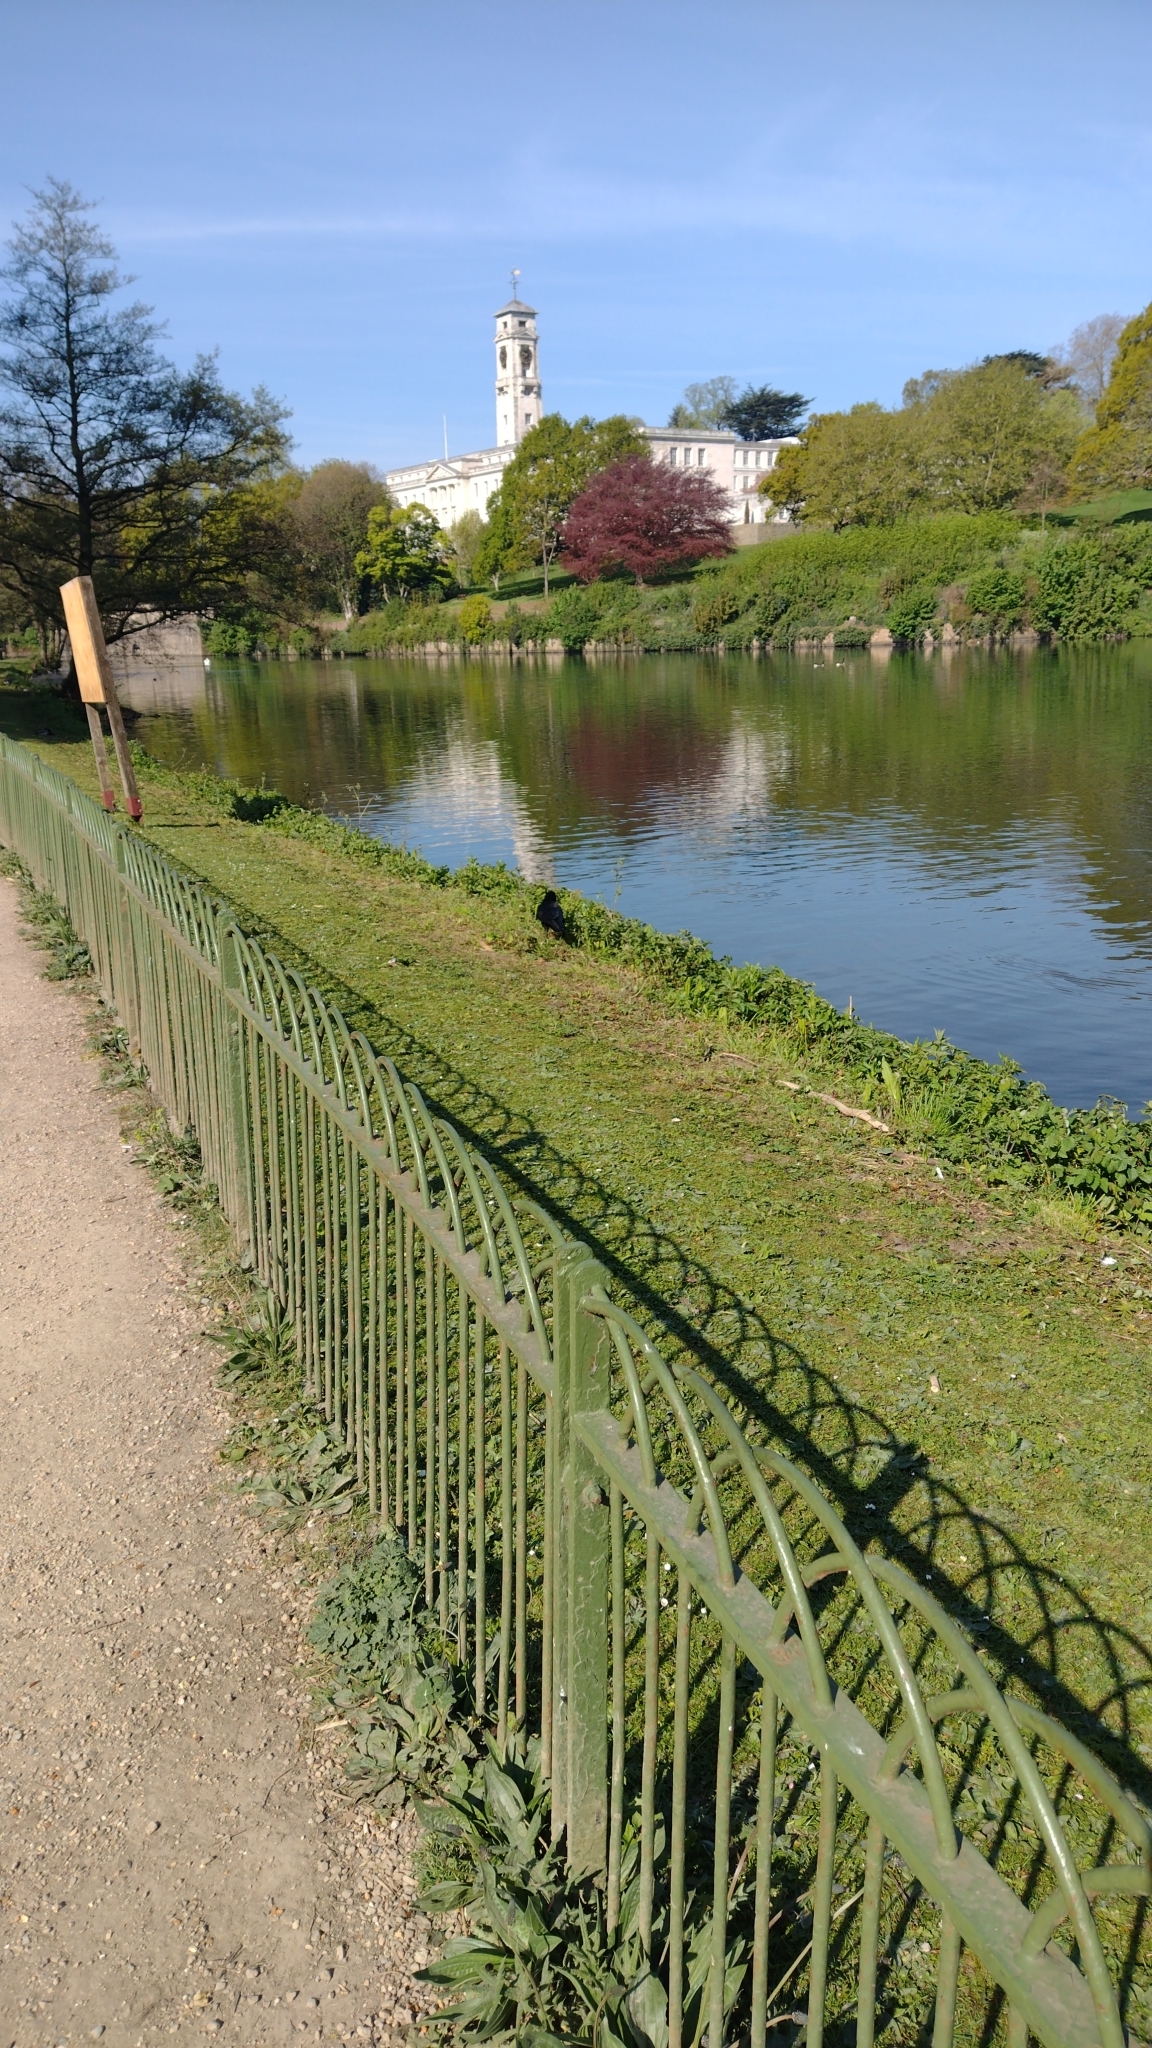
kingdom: Animalia
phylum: Chordata
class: Aves
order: Passeriformes
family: Corvidae
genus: Corvus
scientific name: Corvus corone
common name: Carrion crow
